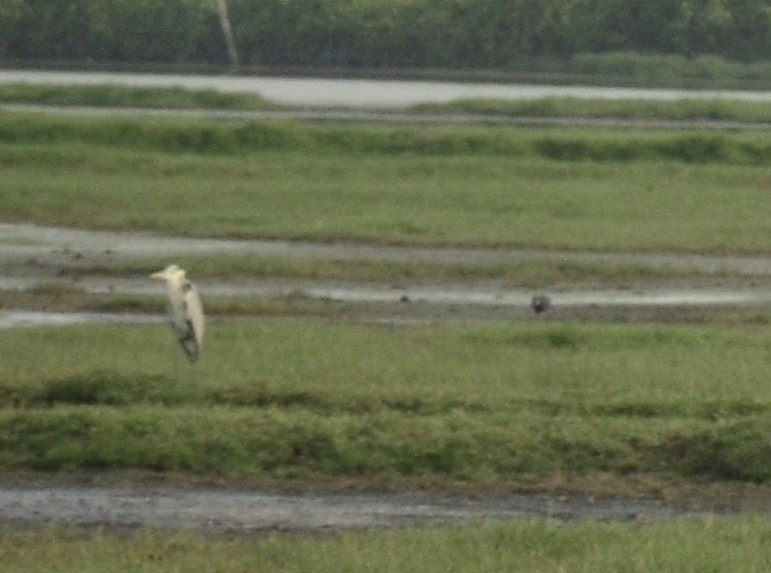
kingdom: Animalia
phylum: Chordata
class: Aves
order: Pelecaniformes
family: Ardeidae
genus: Ardea
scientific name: Ardea cinerea
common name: Grey heron
